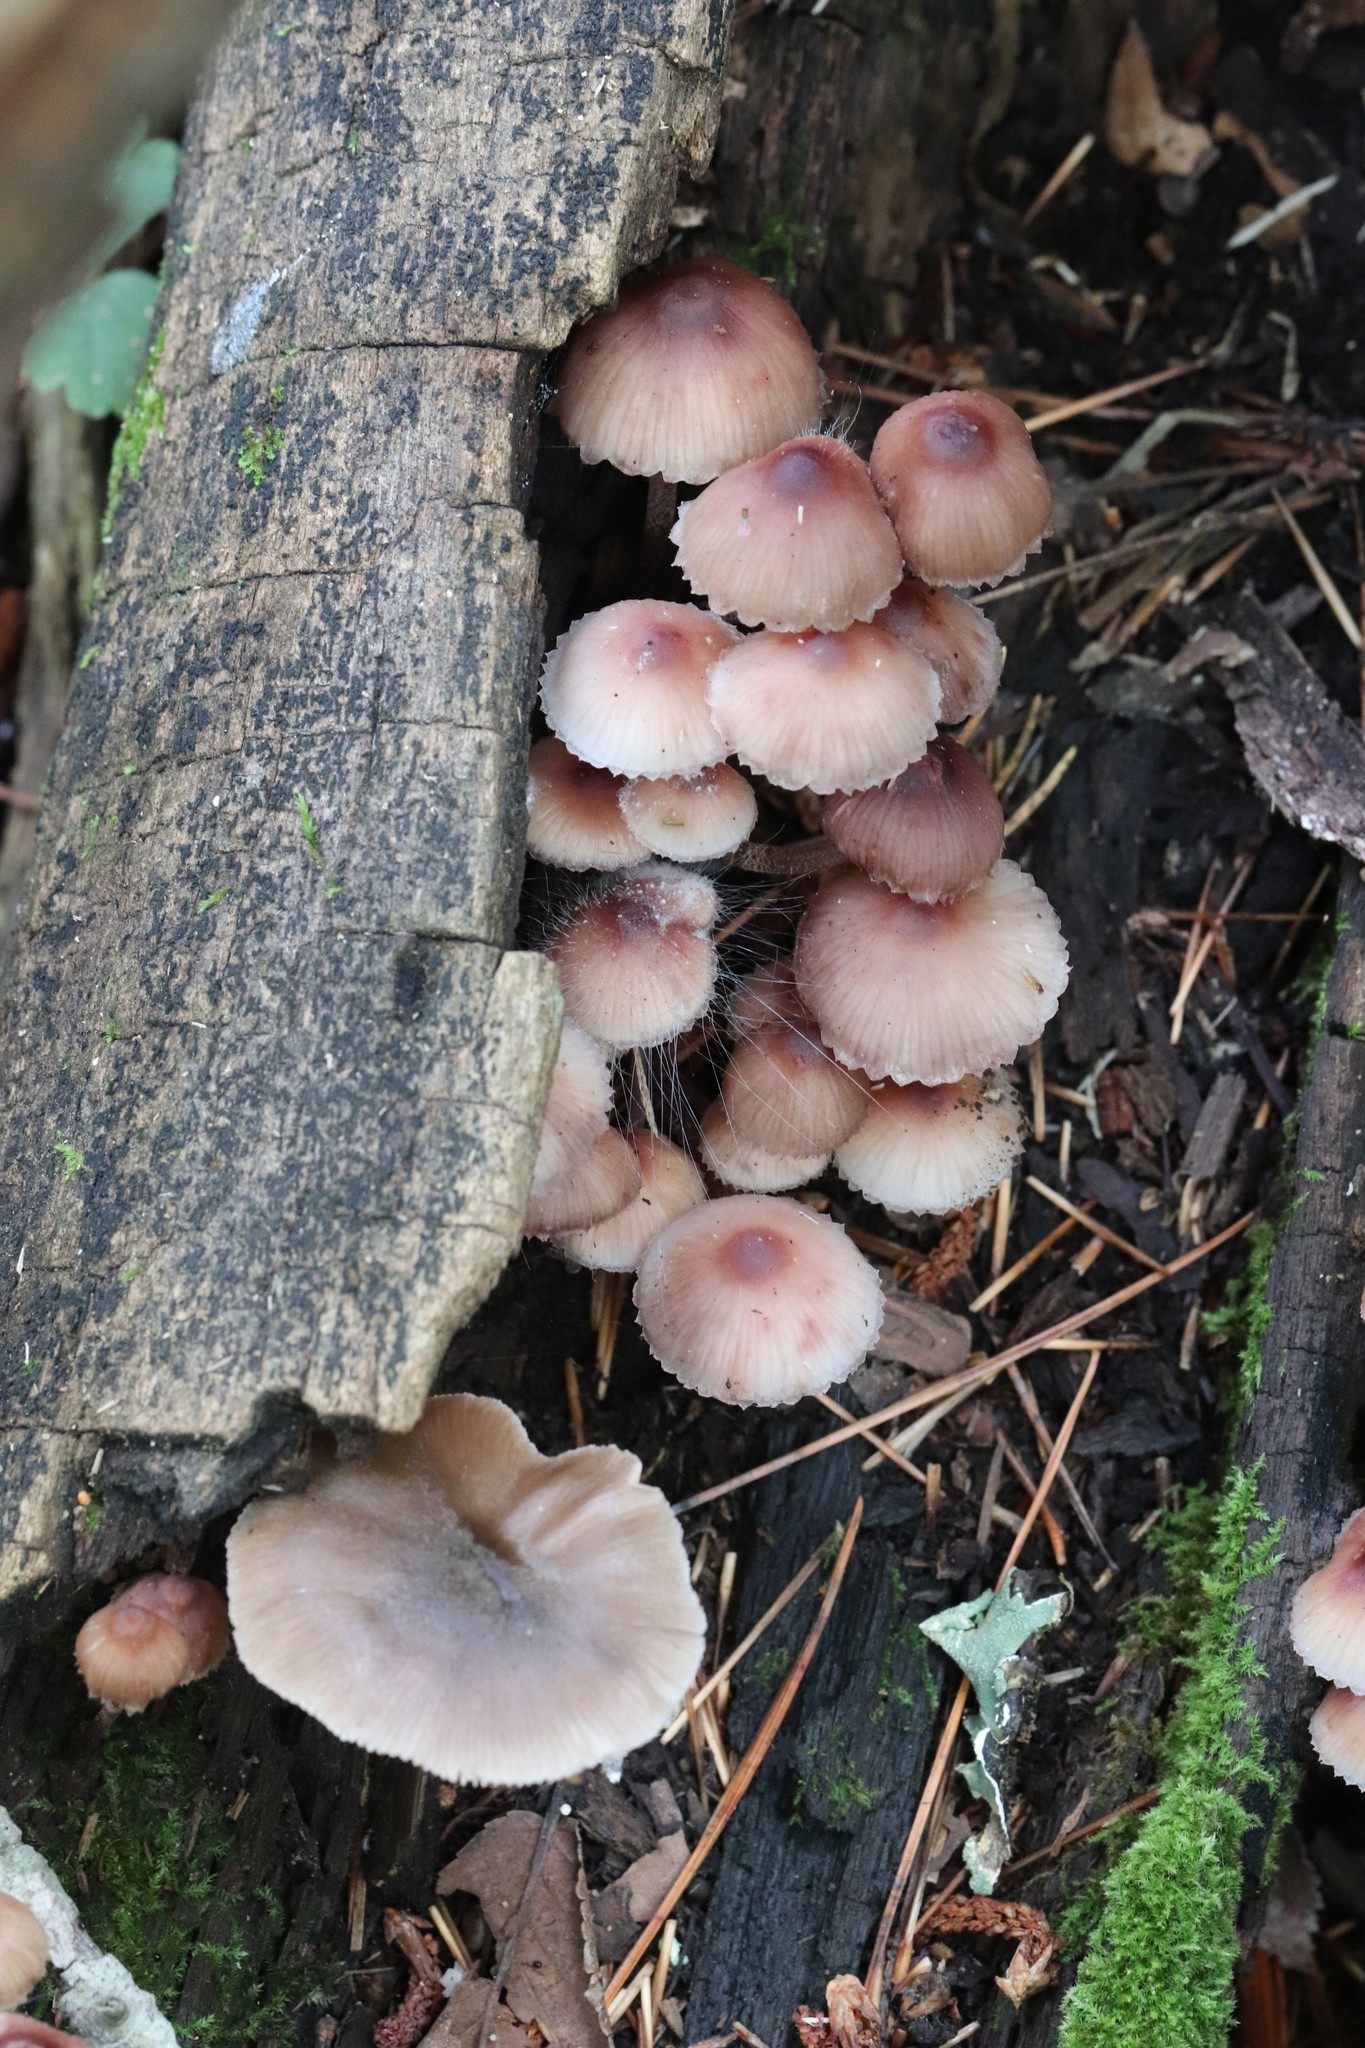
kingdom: Fungi
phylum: Basidiomycota
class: Agaricomycetes
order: Agaricales
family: Mycenaceae
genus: Mycena
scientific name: Mycena haematopus
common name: Burgundydrop bonnet
